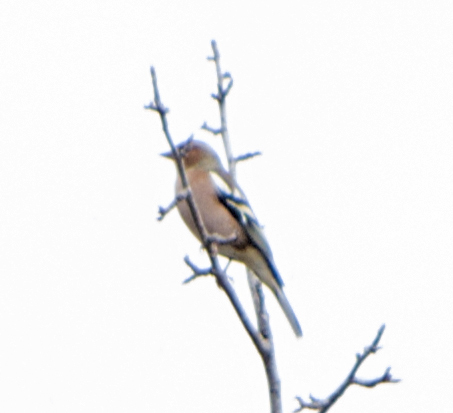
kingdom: Animalia
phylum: Chordata
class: Aves
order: Passeriformes
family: Fringillidae
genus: Fringilla
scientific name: Fringilla coelebs
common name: Common chaffinch
